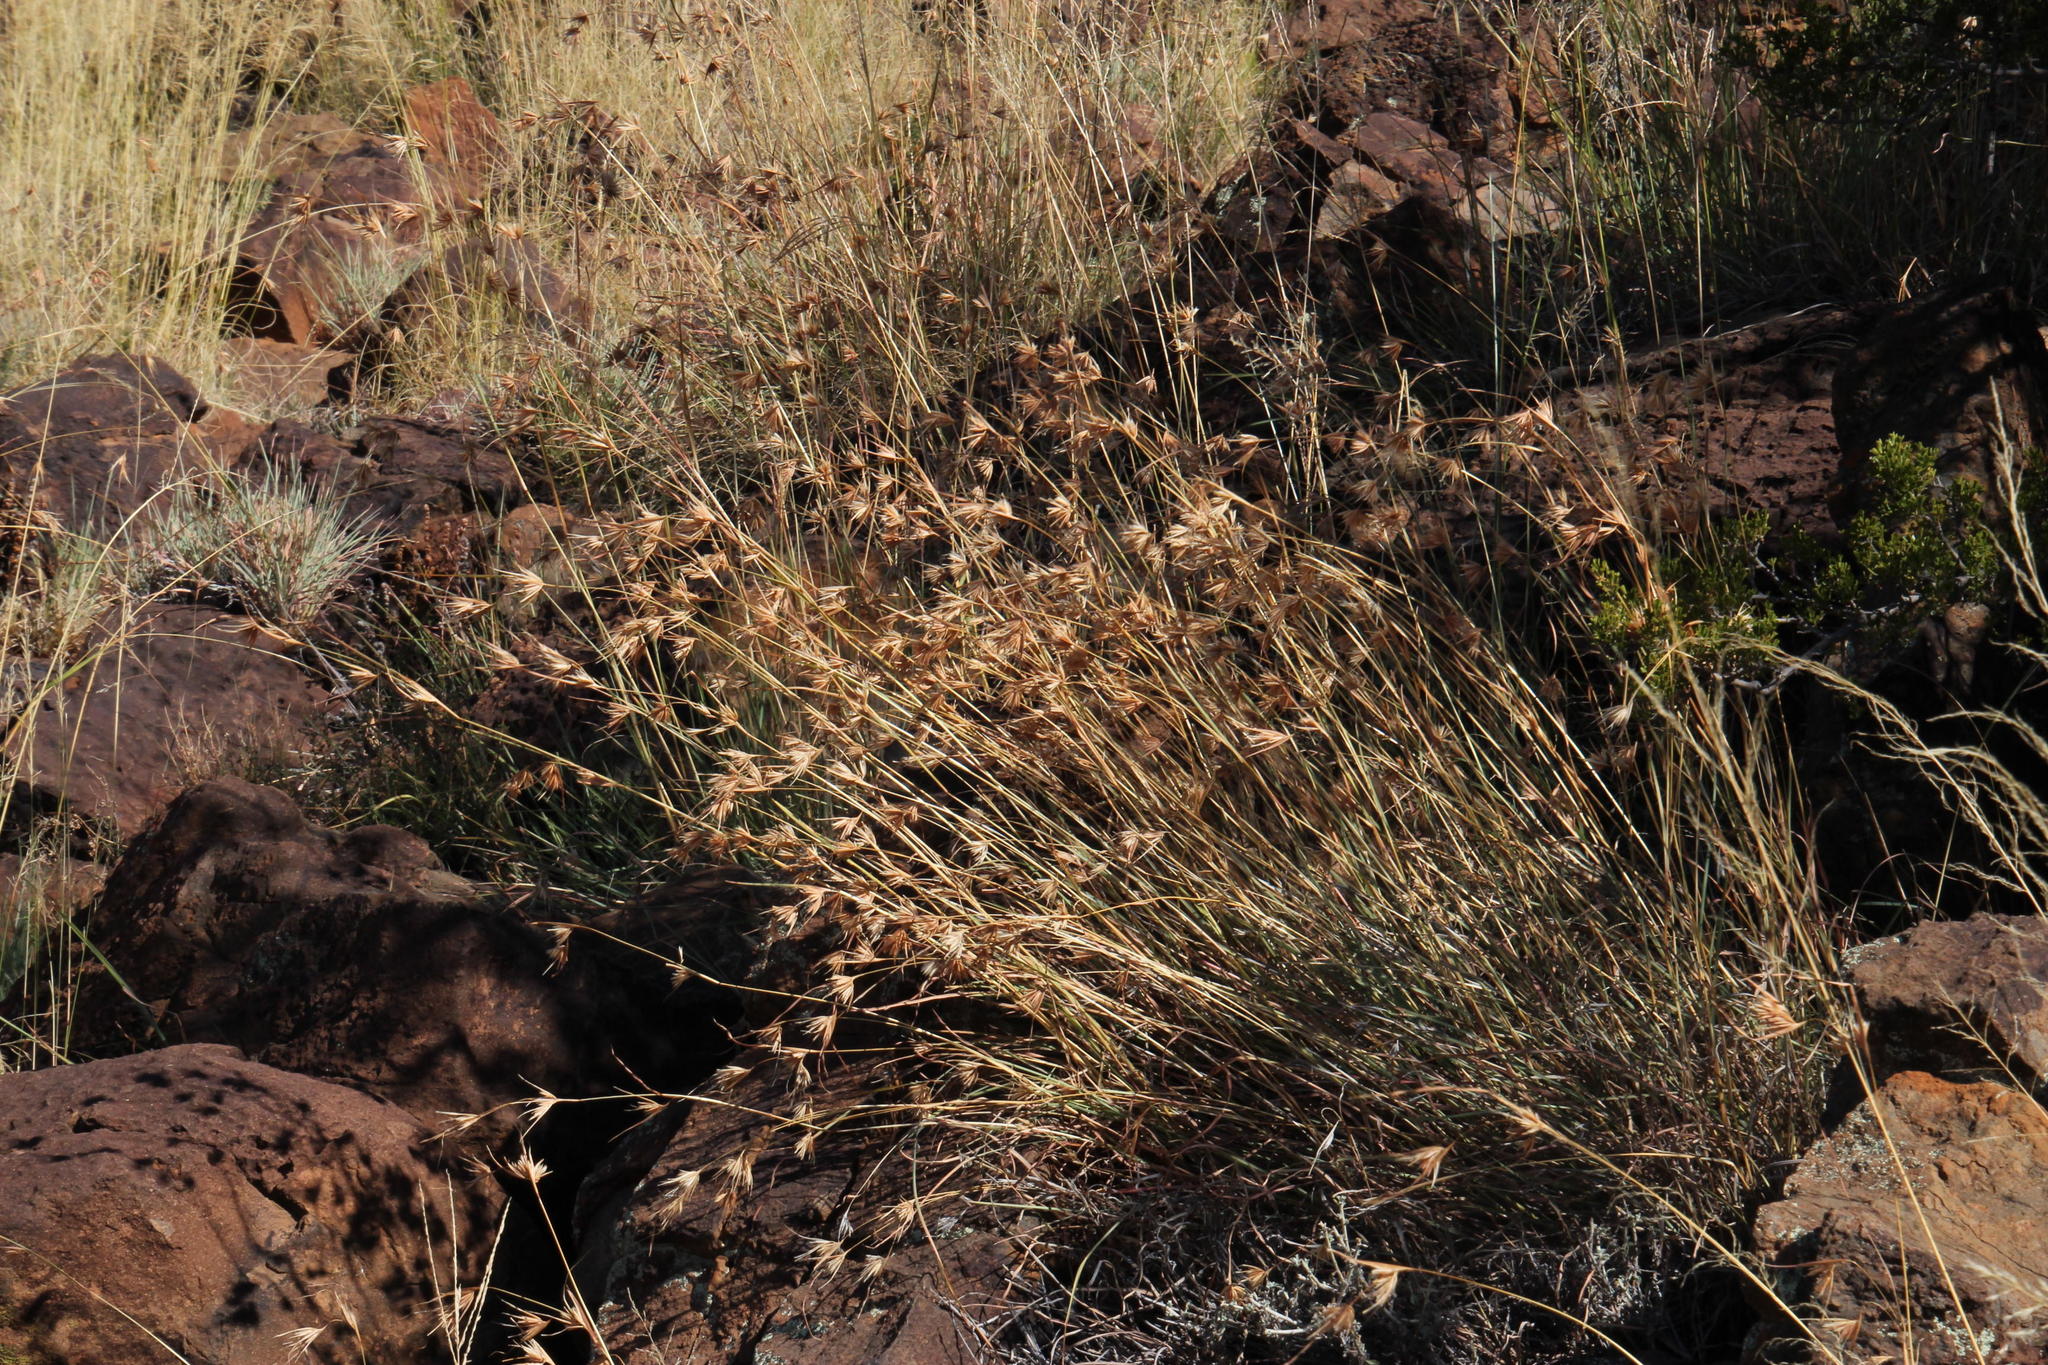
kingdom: Plantae
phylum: Tracheophyta
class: Liliopsida
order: Poales
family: Poaceae
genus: Themeda
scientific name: Themeda triandra
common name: Kangaroo grass
